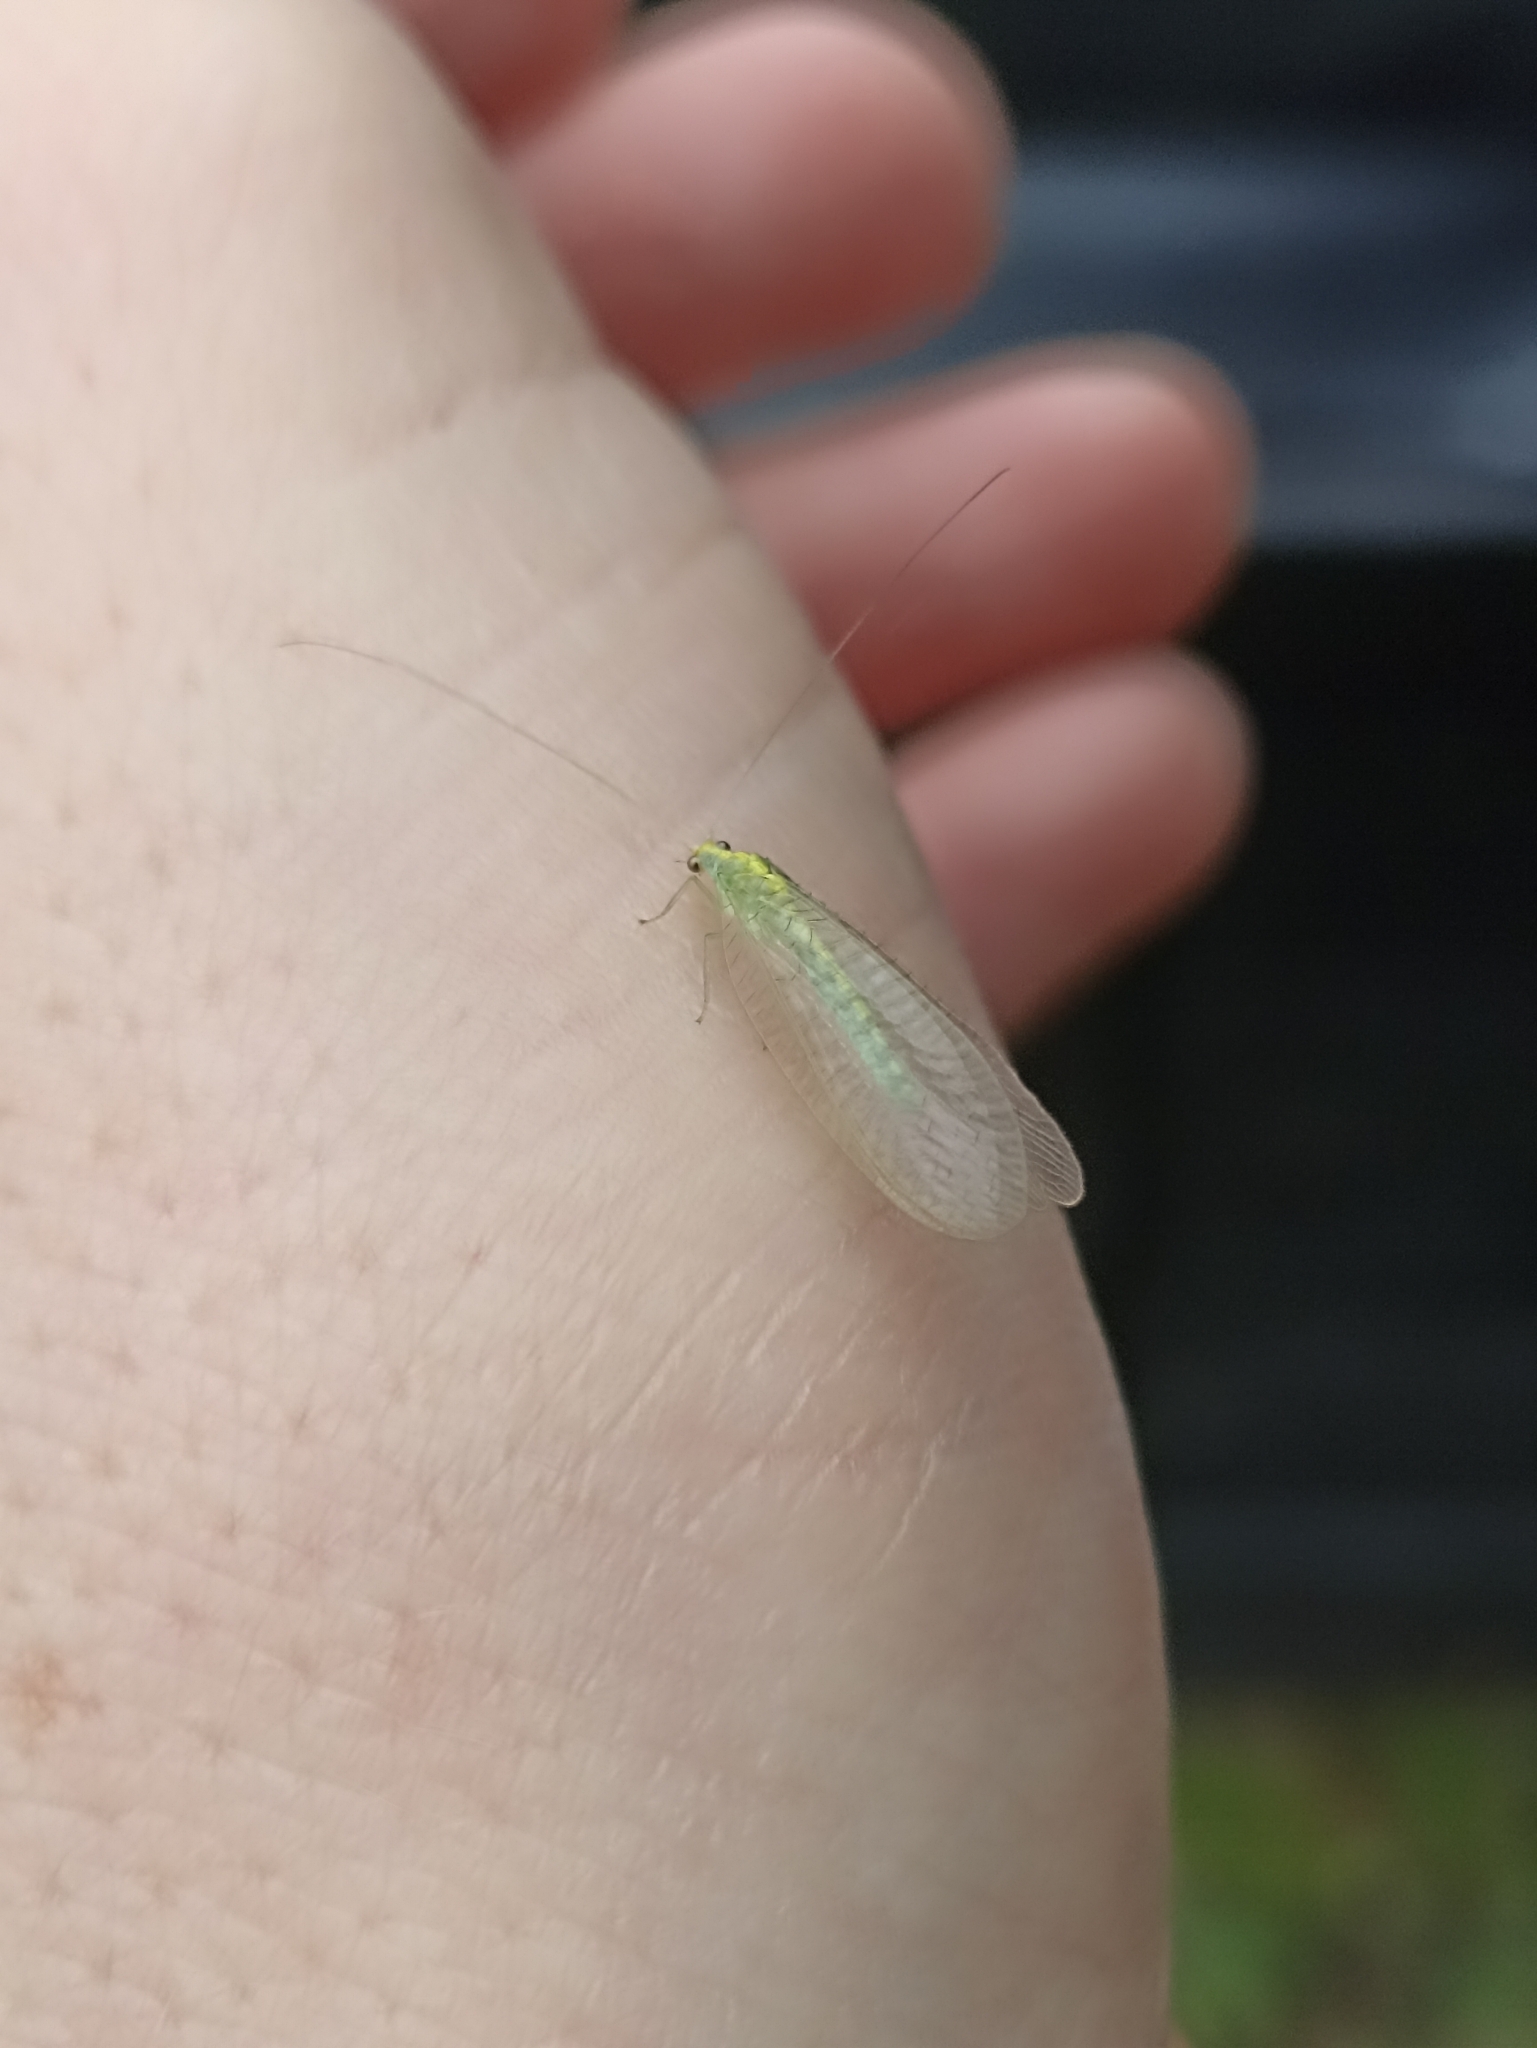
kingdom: Animalia
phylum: Arthropoda
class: Insecta
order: Neuroptera
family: Chrysopidae
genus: Mallada
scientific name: Mallada basalis
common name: Green lacewing
